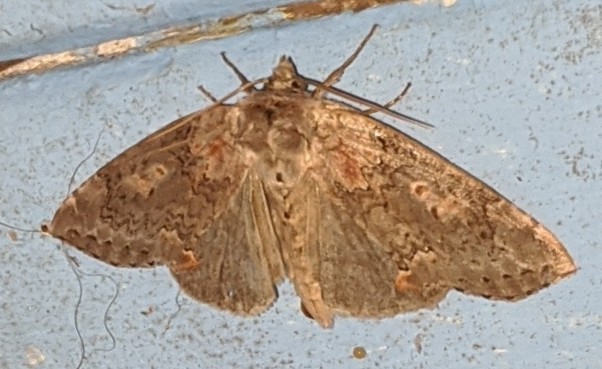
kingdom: Animalia
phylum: Arthropoda
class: Insecta
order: Lepidoptera
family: Drepanidae
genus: Pseudothyatira
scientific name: Pseudothyatira cymatophoroides
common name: Tufted thyatirid moth
